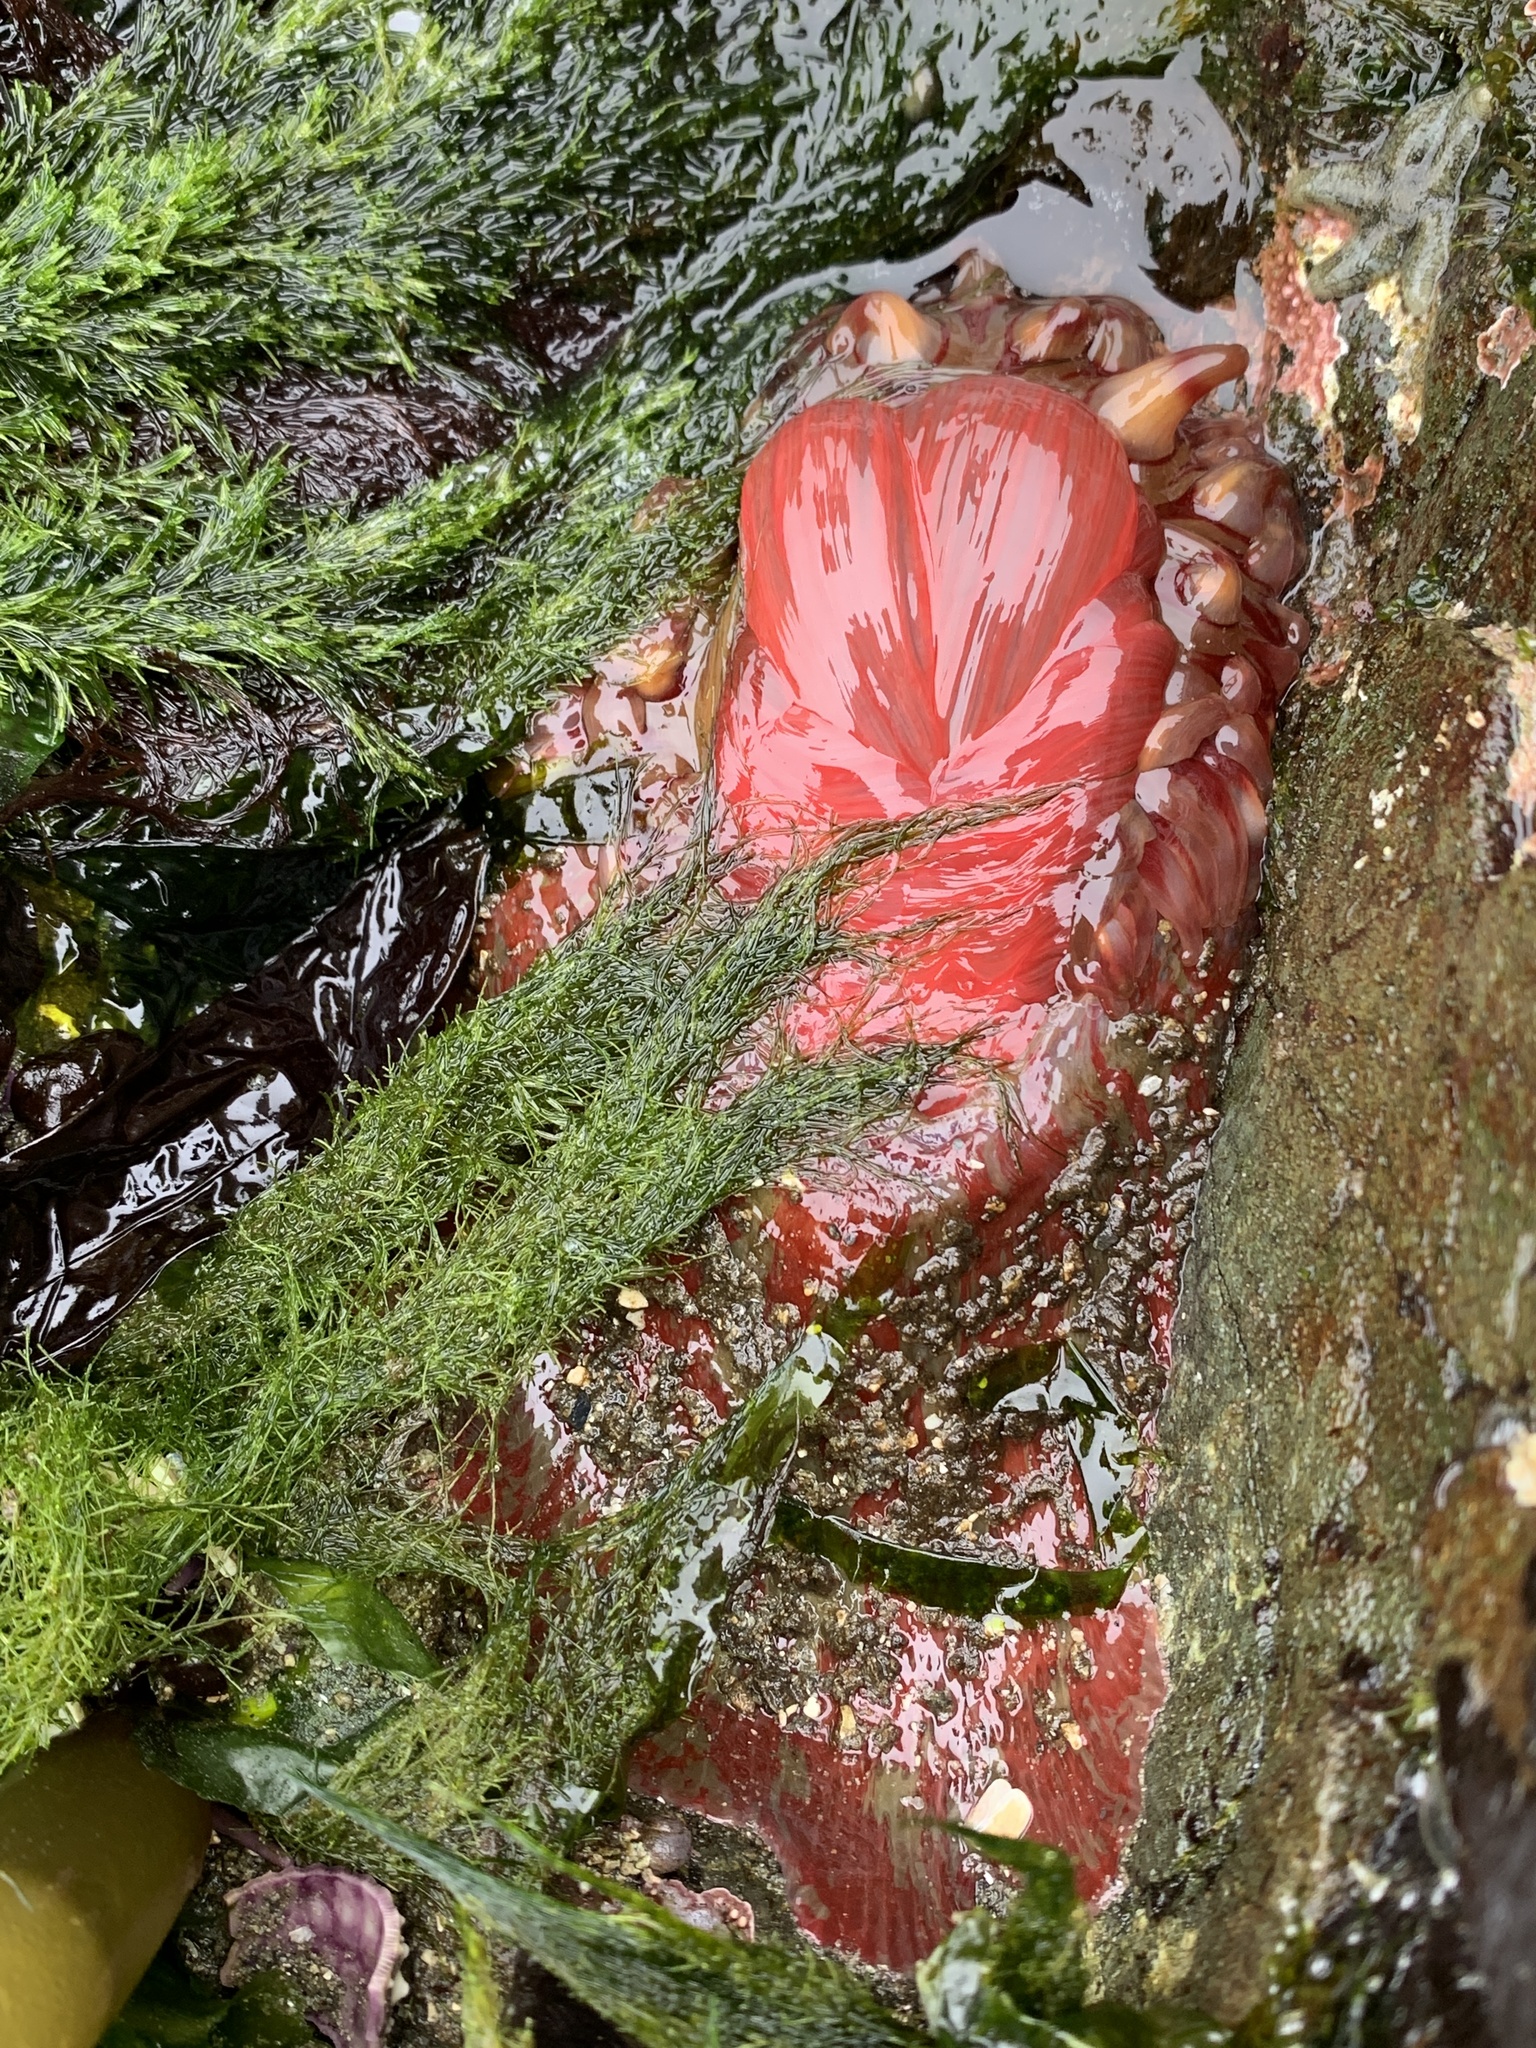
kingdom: Animalia
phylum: Cnidaria
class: Anthozoa
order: Actiniaria
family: Actiniidae
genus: Urticina
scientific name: Urticina grebelnyi
